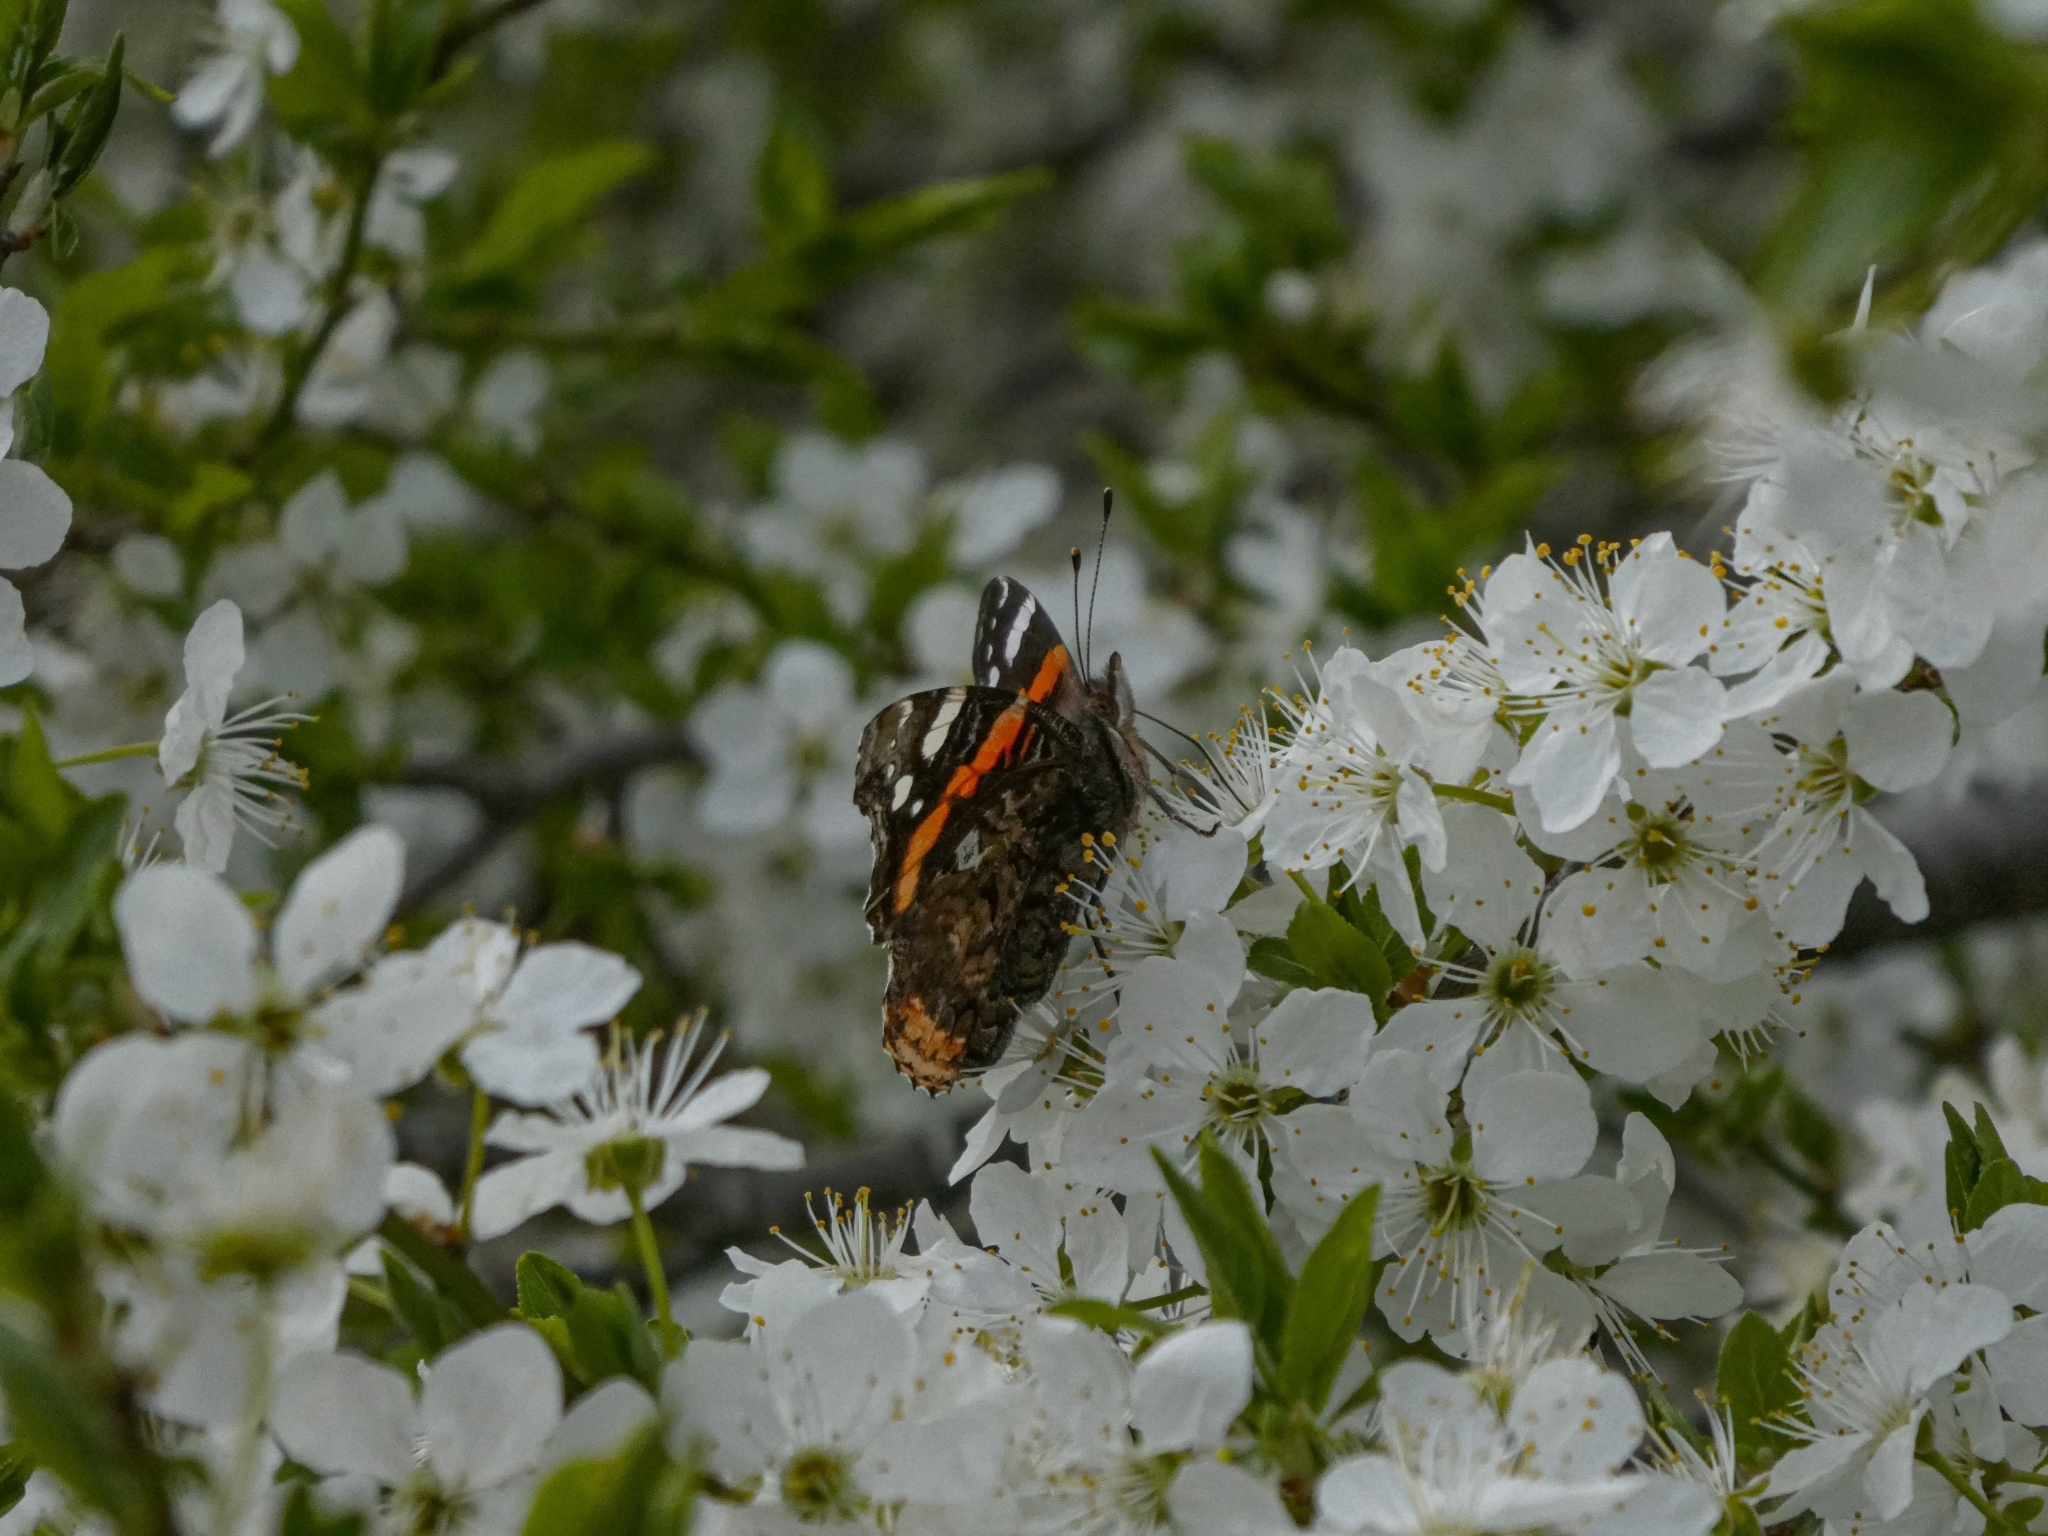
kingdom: Animalia
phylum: Arthropoda
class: Insecta
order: Lepidoptera
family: Nymphalidae
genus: Vanessa
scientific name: Vanessa atalanta
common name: Red admiral
